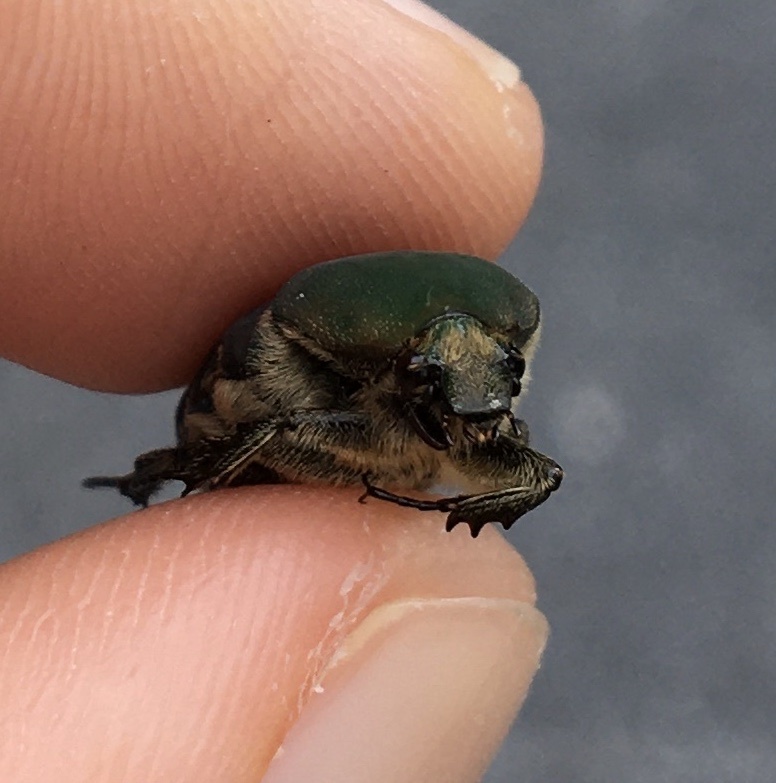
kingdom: Animalia
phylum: Arthropoda
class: Insecta
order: Coleoptera
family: Scarabaeidae
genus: Euphoria
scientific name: Euphoria herbacea
